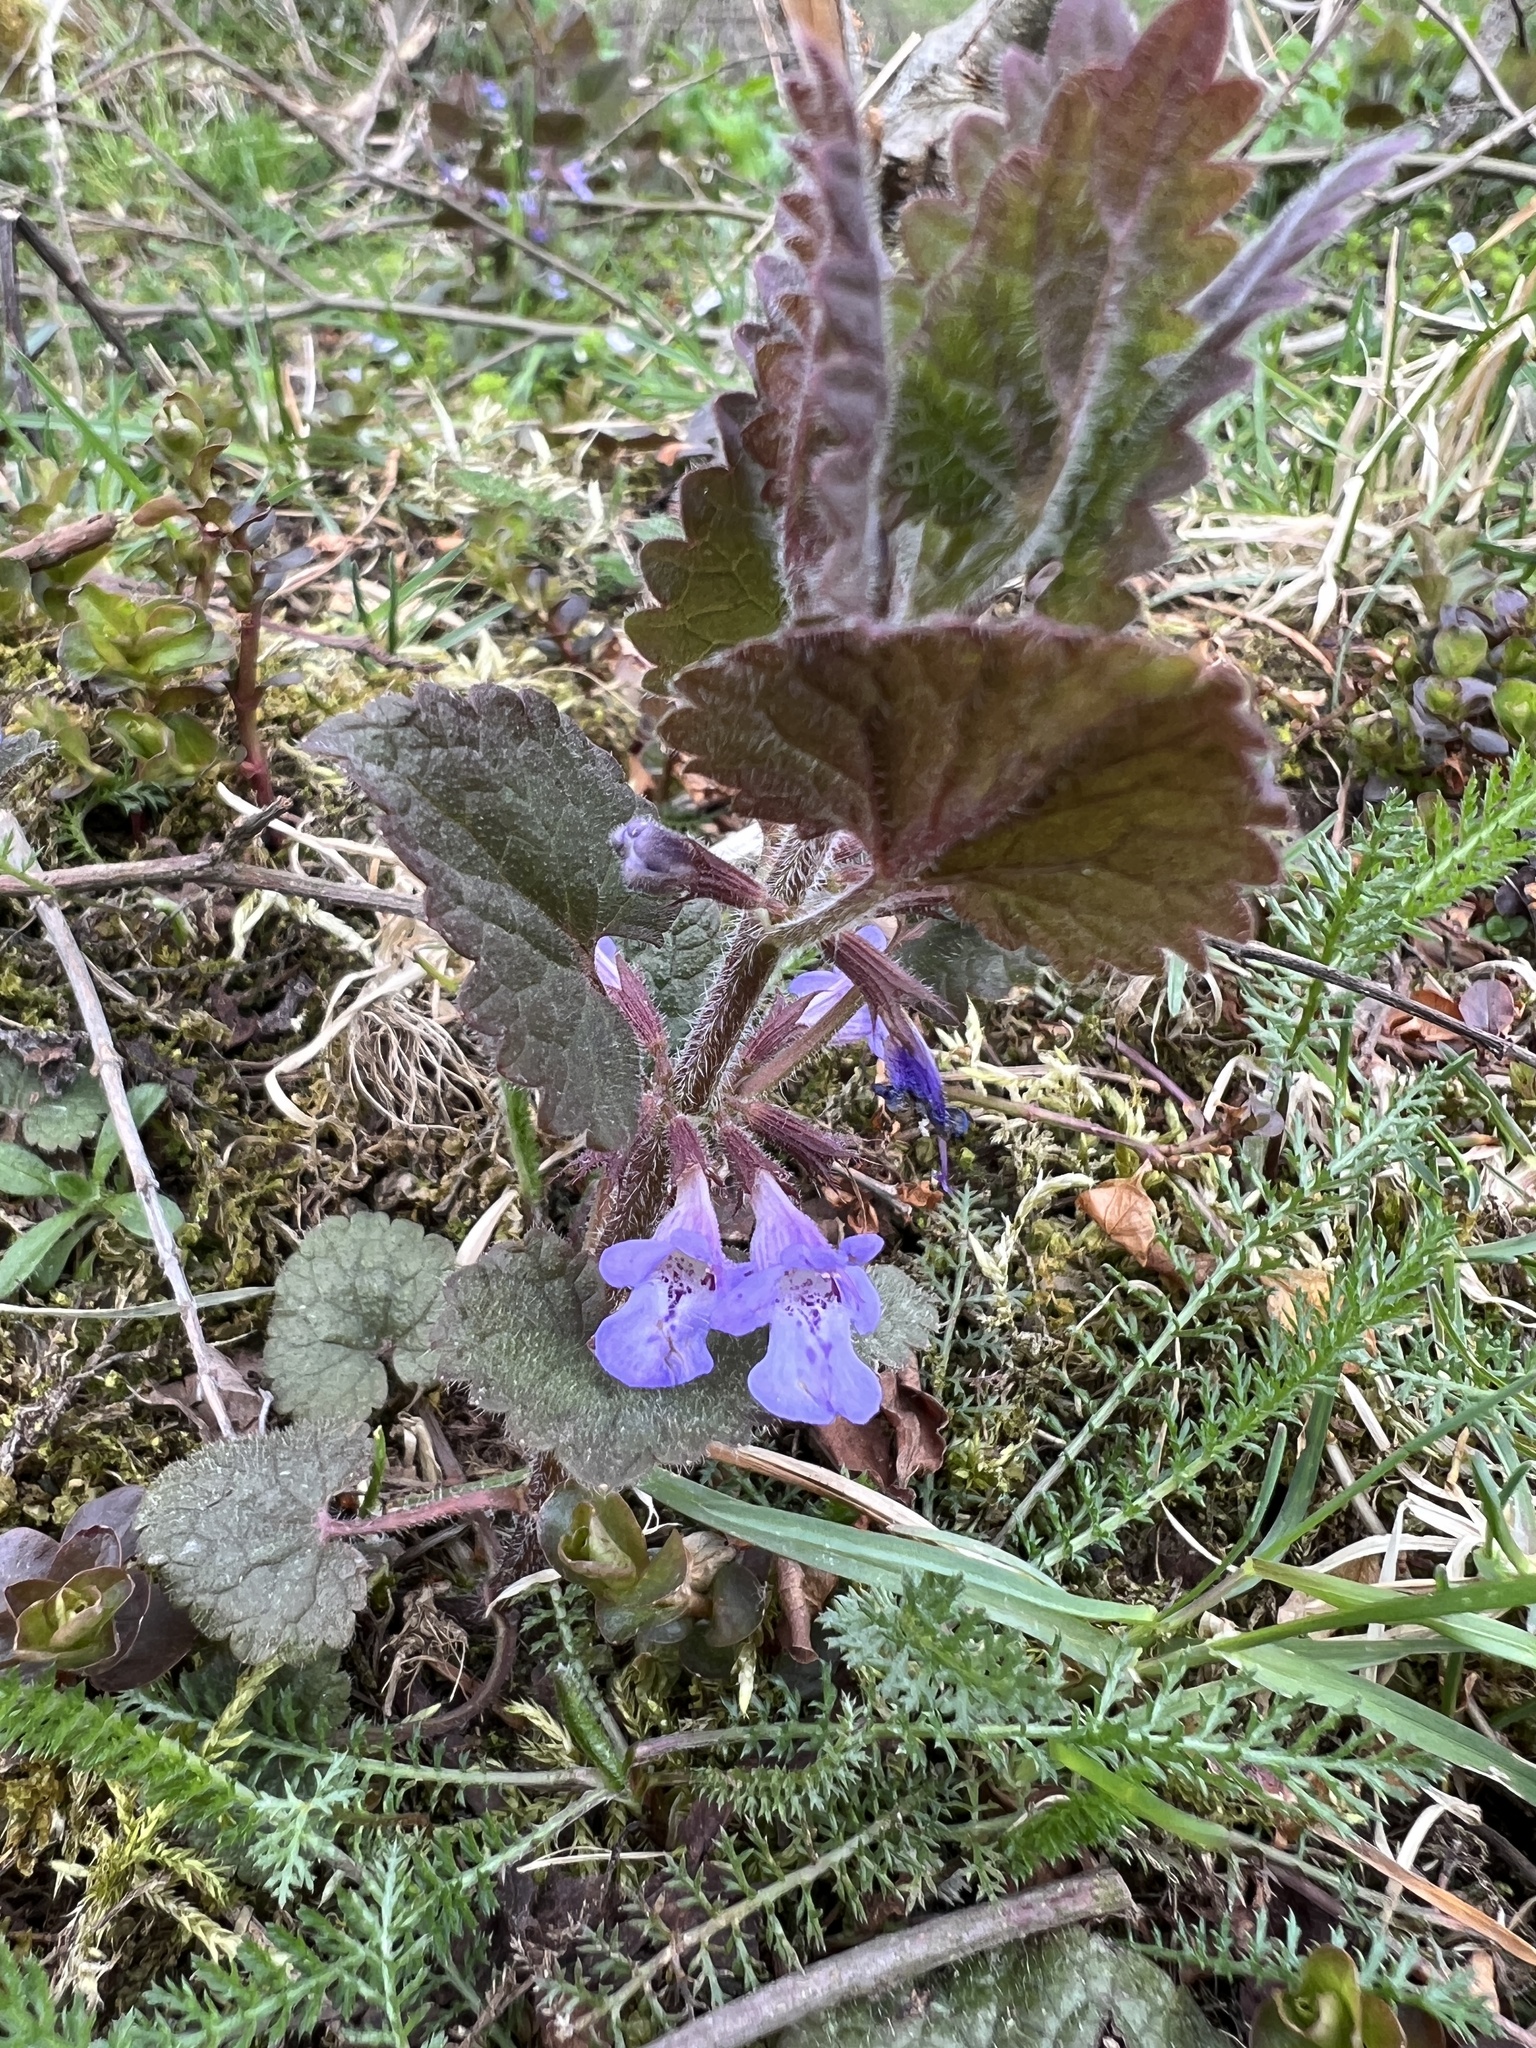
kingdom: Plantae
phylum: Tracheophyta
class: Magnoliopsida
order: Lamiales
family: Lamiaceae
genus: Glechoma
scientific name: Glechoma hirsuta
